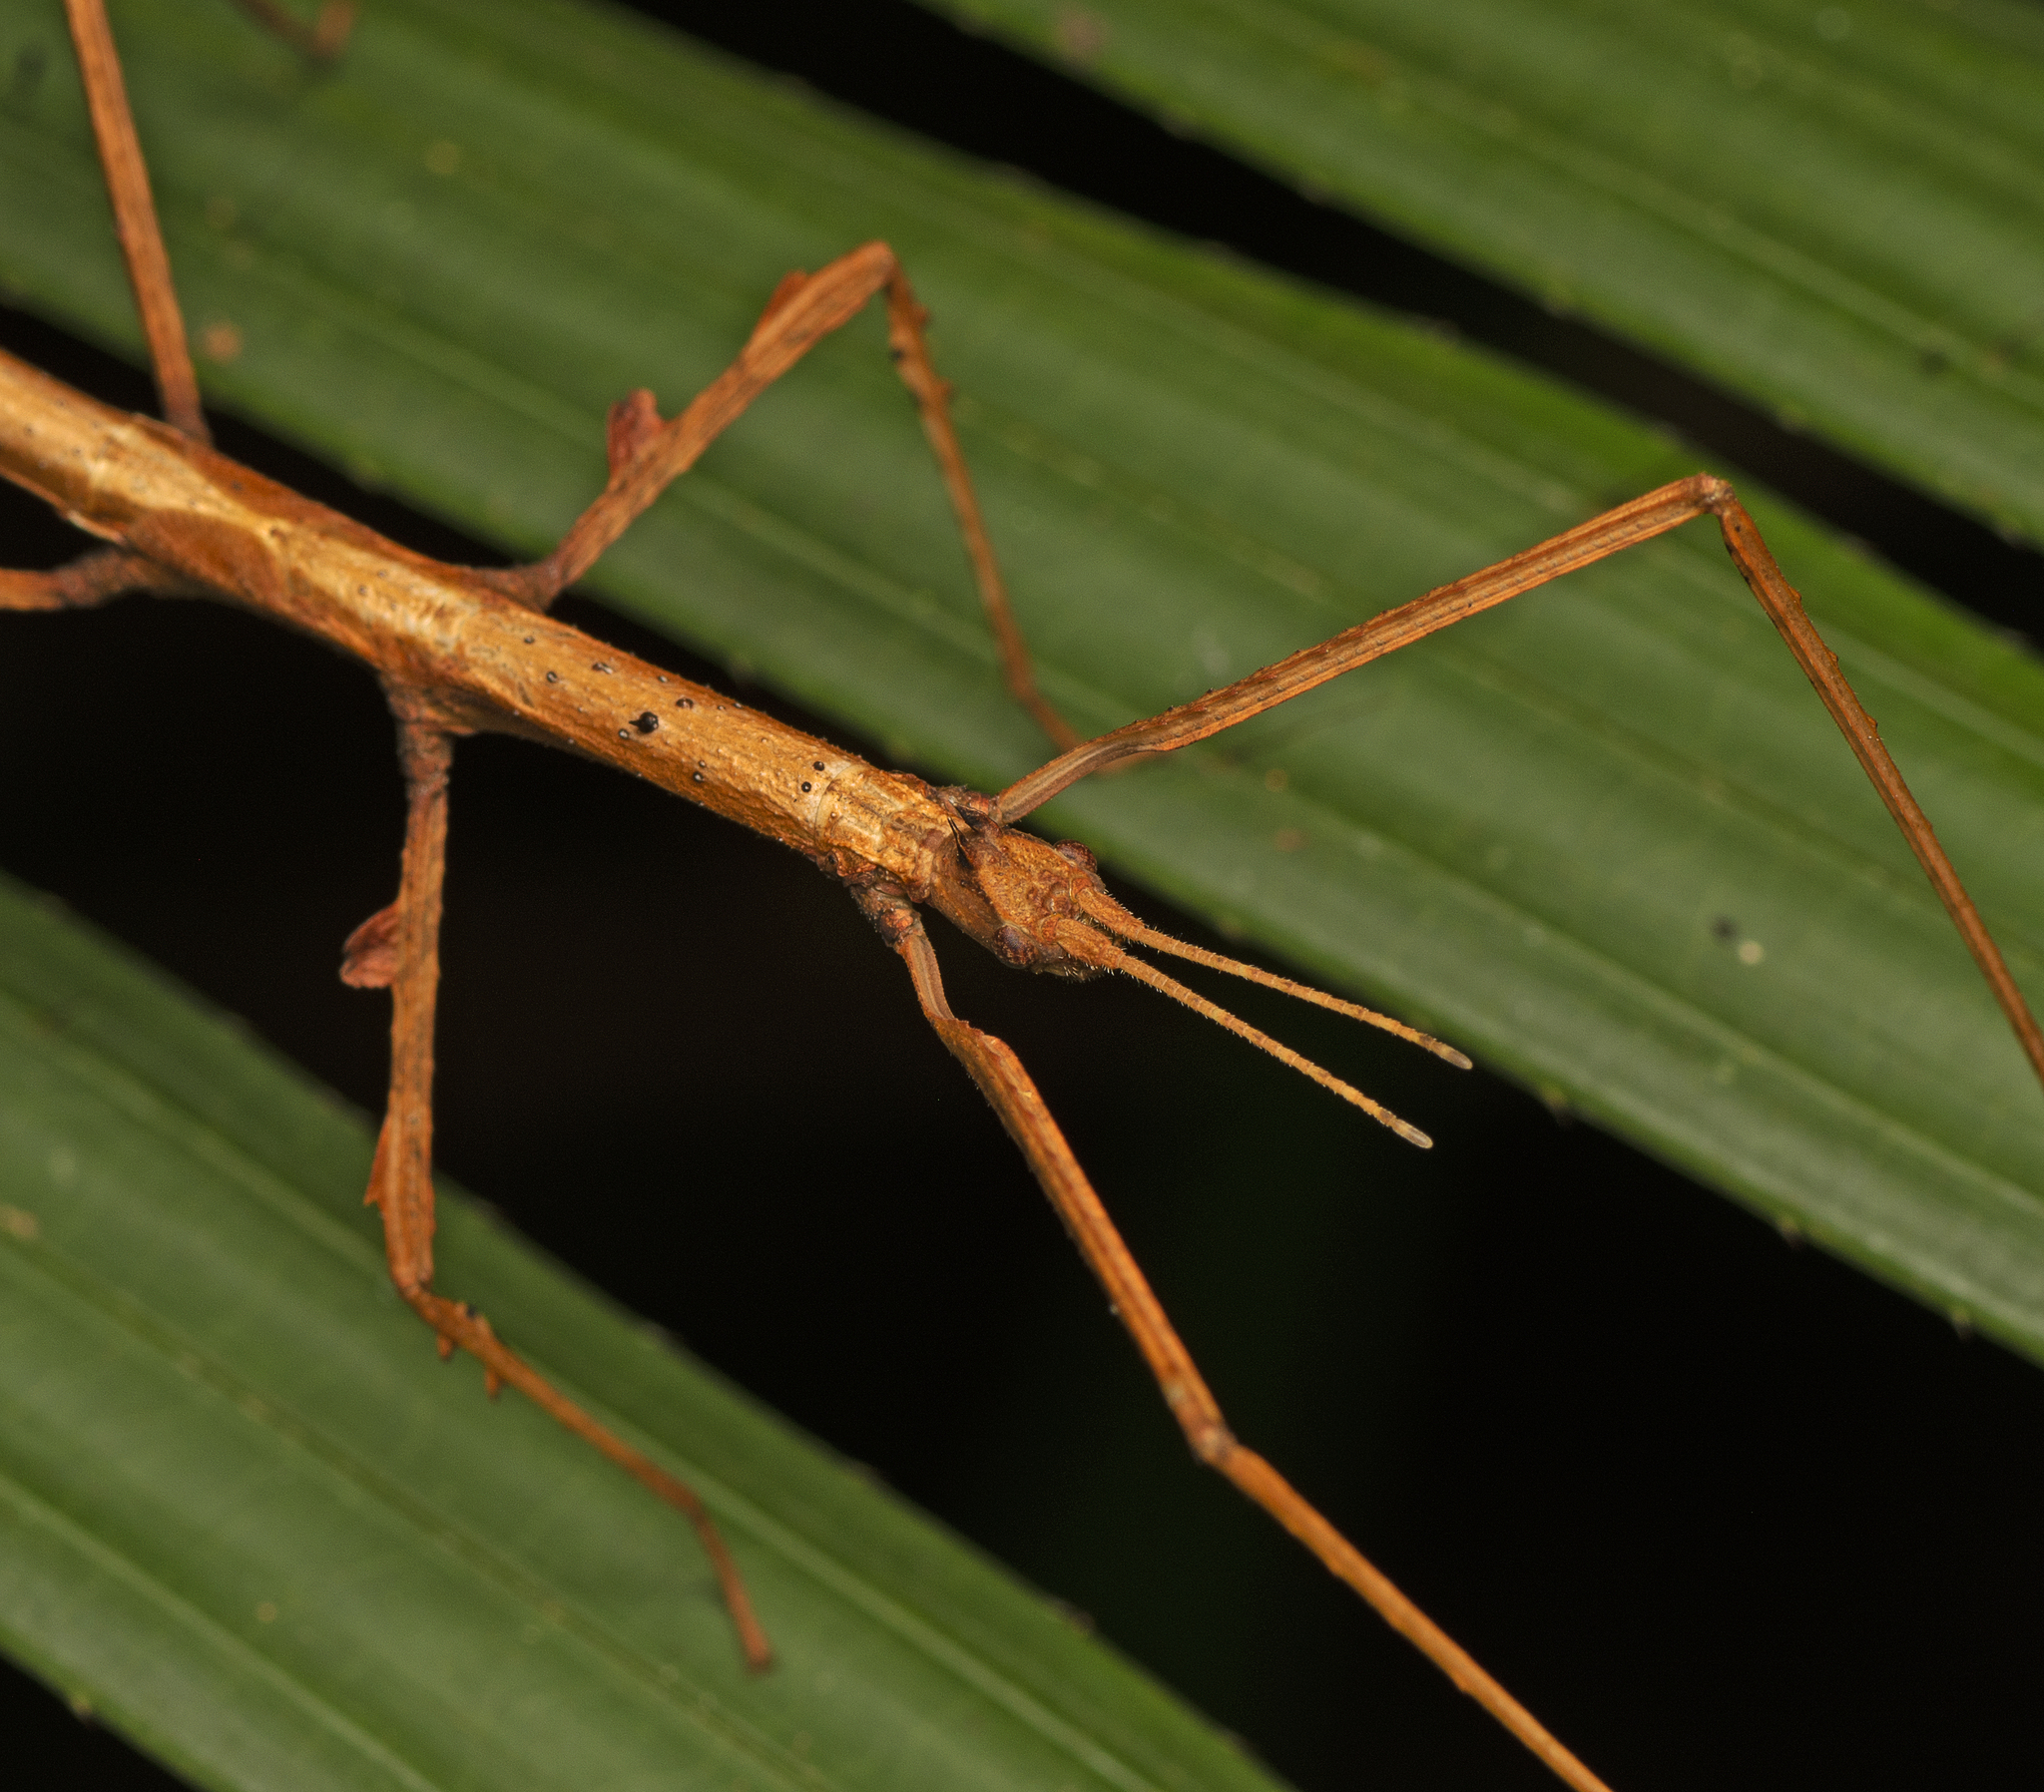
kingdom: Animalia
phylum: Arthropoda
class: Insecta
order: Phasmida
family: Phasmatidae
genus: Onchestus
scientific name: Onchestus rentzi
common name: Rentz's stick-insect
